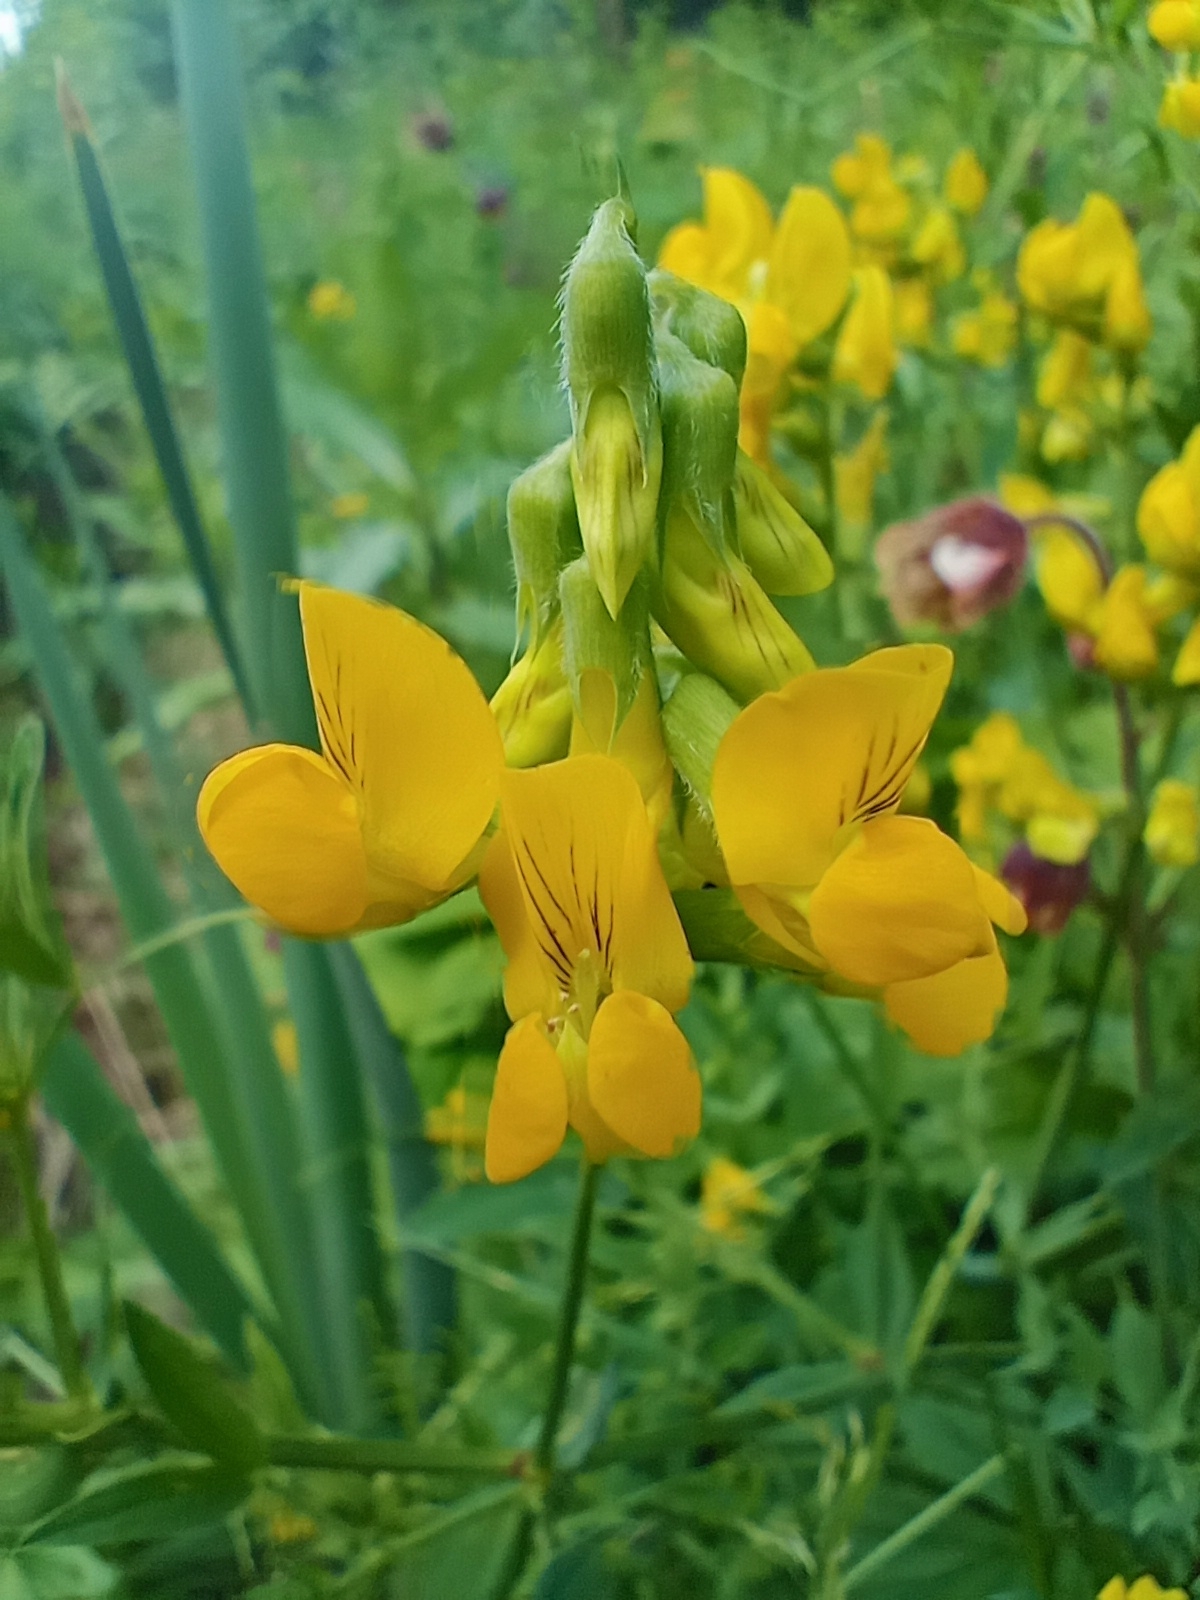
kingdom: Plantae
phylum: Tracheophyta
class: Magnoliopsida
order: Fabales
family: Fabaceae
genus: Lathyrus
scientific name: Lathyrus pratensis
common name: Meadow vetchling
